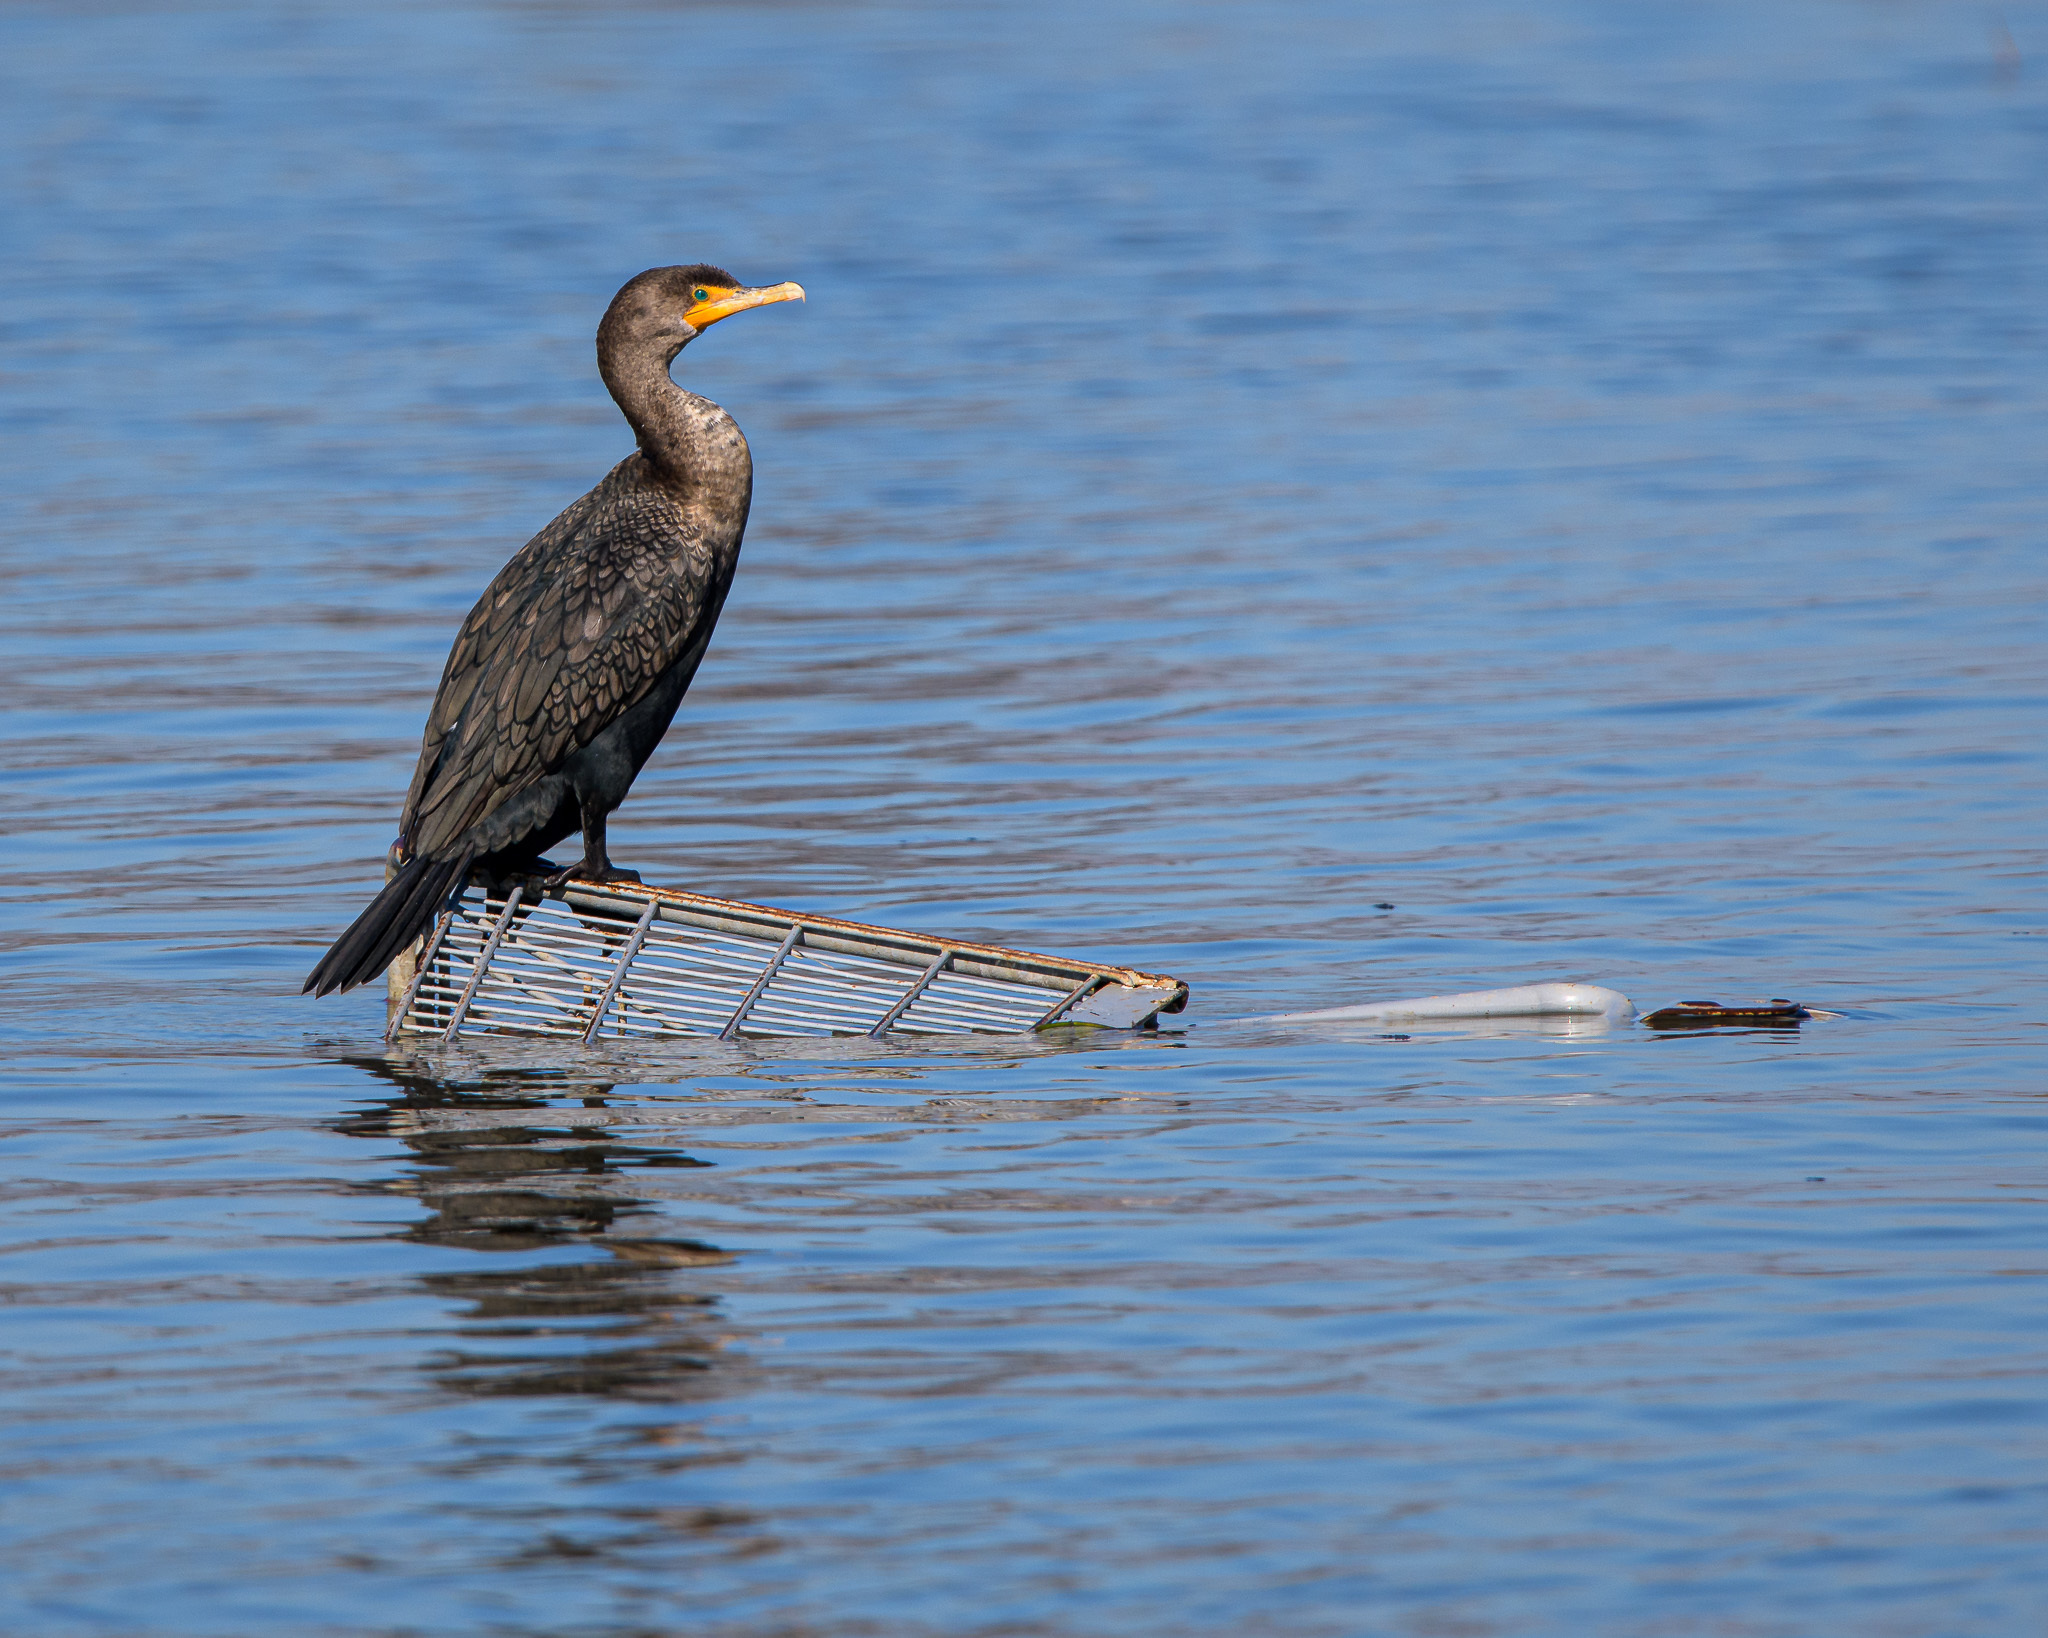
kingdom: Animalia
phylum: Chordata
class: Aves
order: Suliformes
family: Phalacrocoracidae
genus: Phalacrocorax
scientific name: Phalacrocorax auritus
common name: Double-crested cormorant
